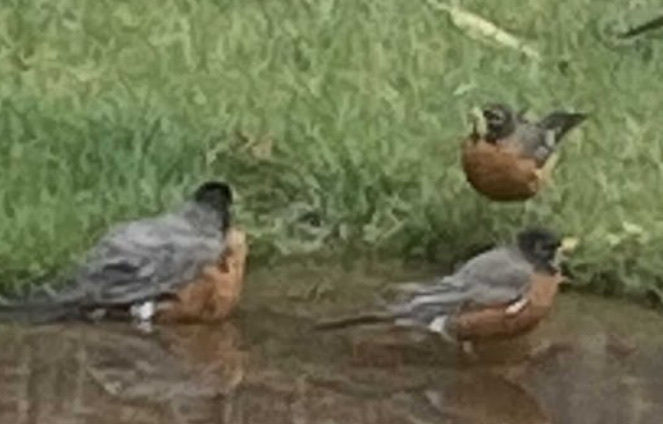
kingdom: Animalia
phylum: Chordata
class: Aves
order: Passeriformes
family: Turdidae
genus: Turdus
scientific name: Turdus migratorius
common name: American robin
